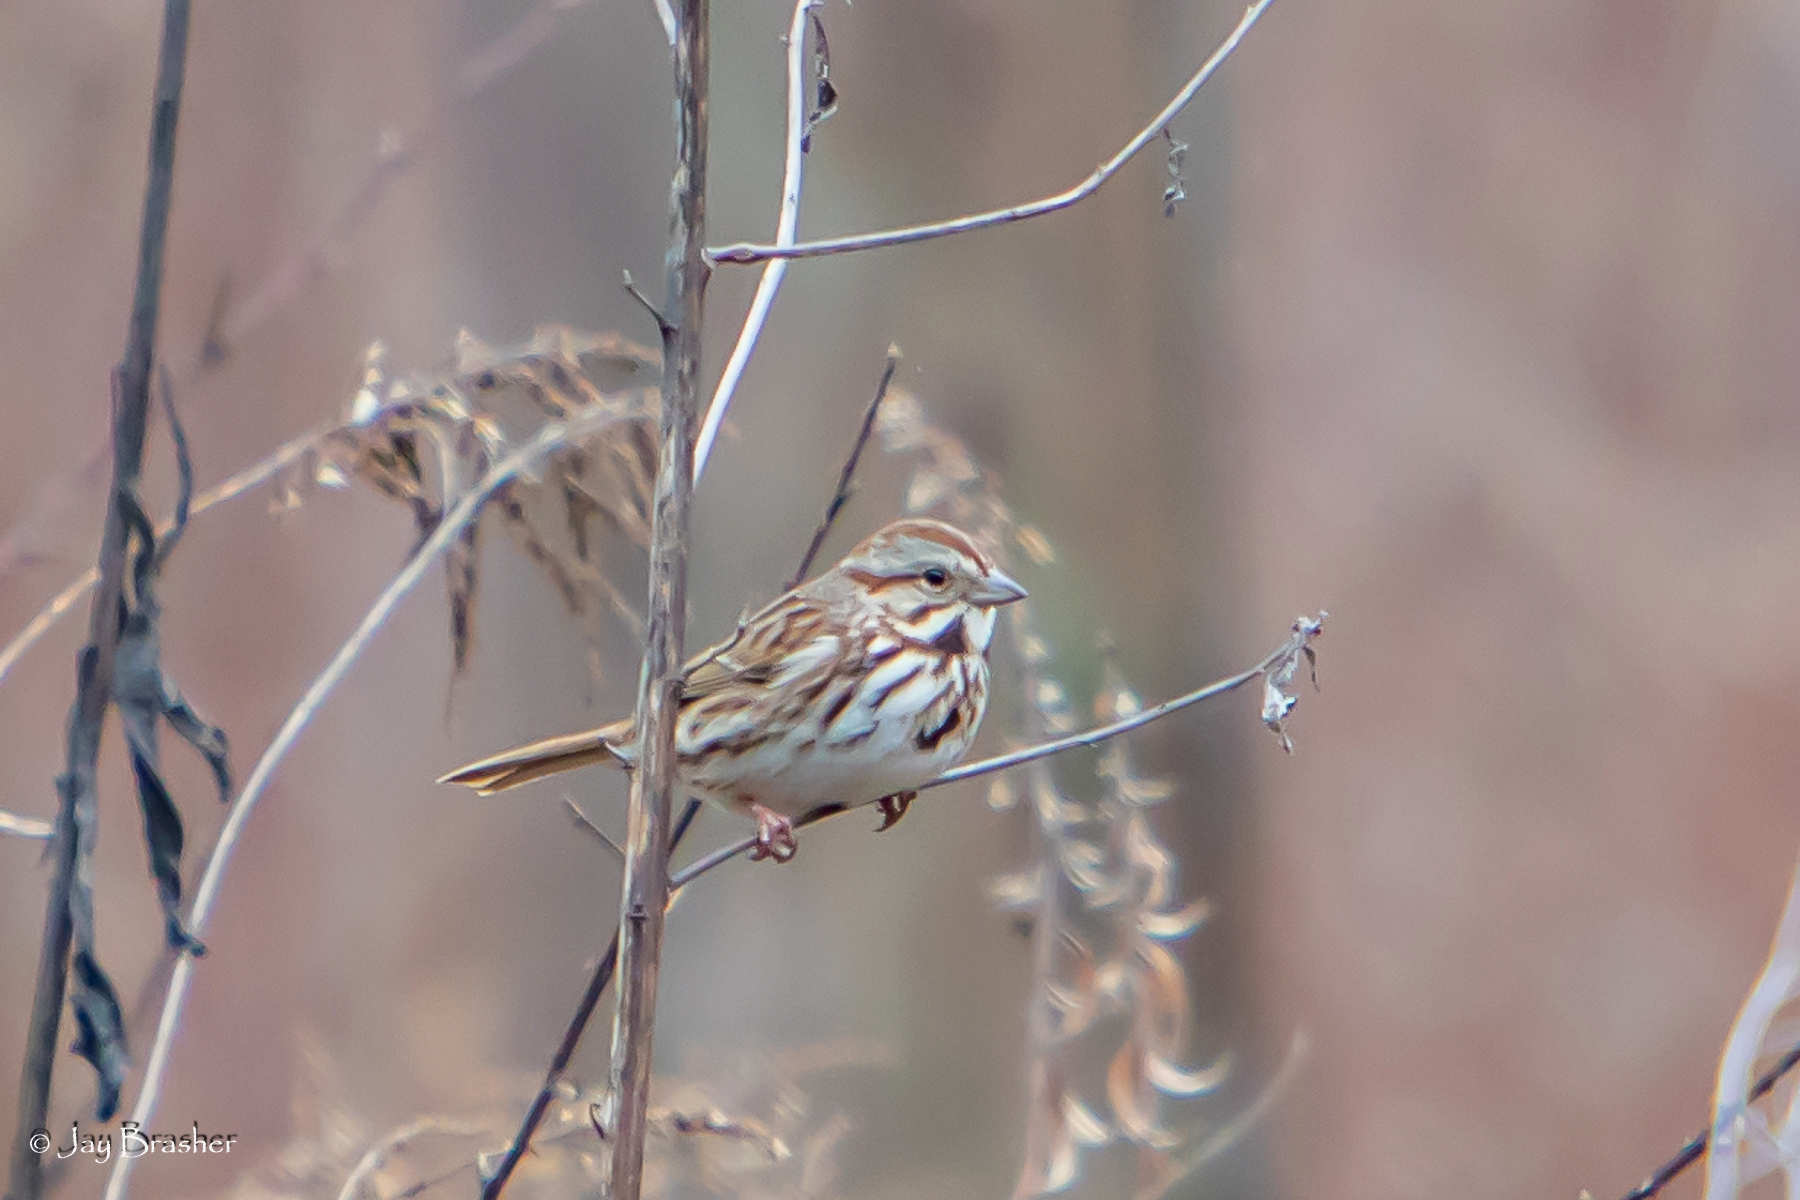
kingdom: Animalia
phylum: Chordata
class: Aves
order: Passeriformes
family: Passerellidae
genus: Melospiza
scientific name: Melospiza melodia
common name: Song sparrow
